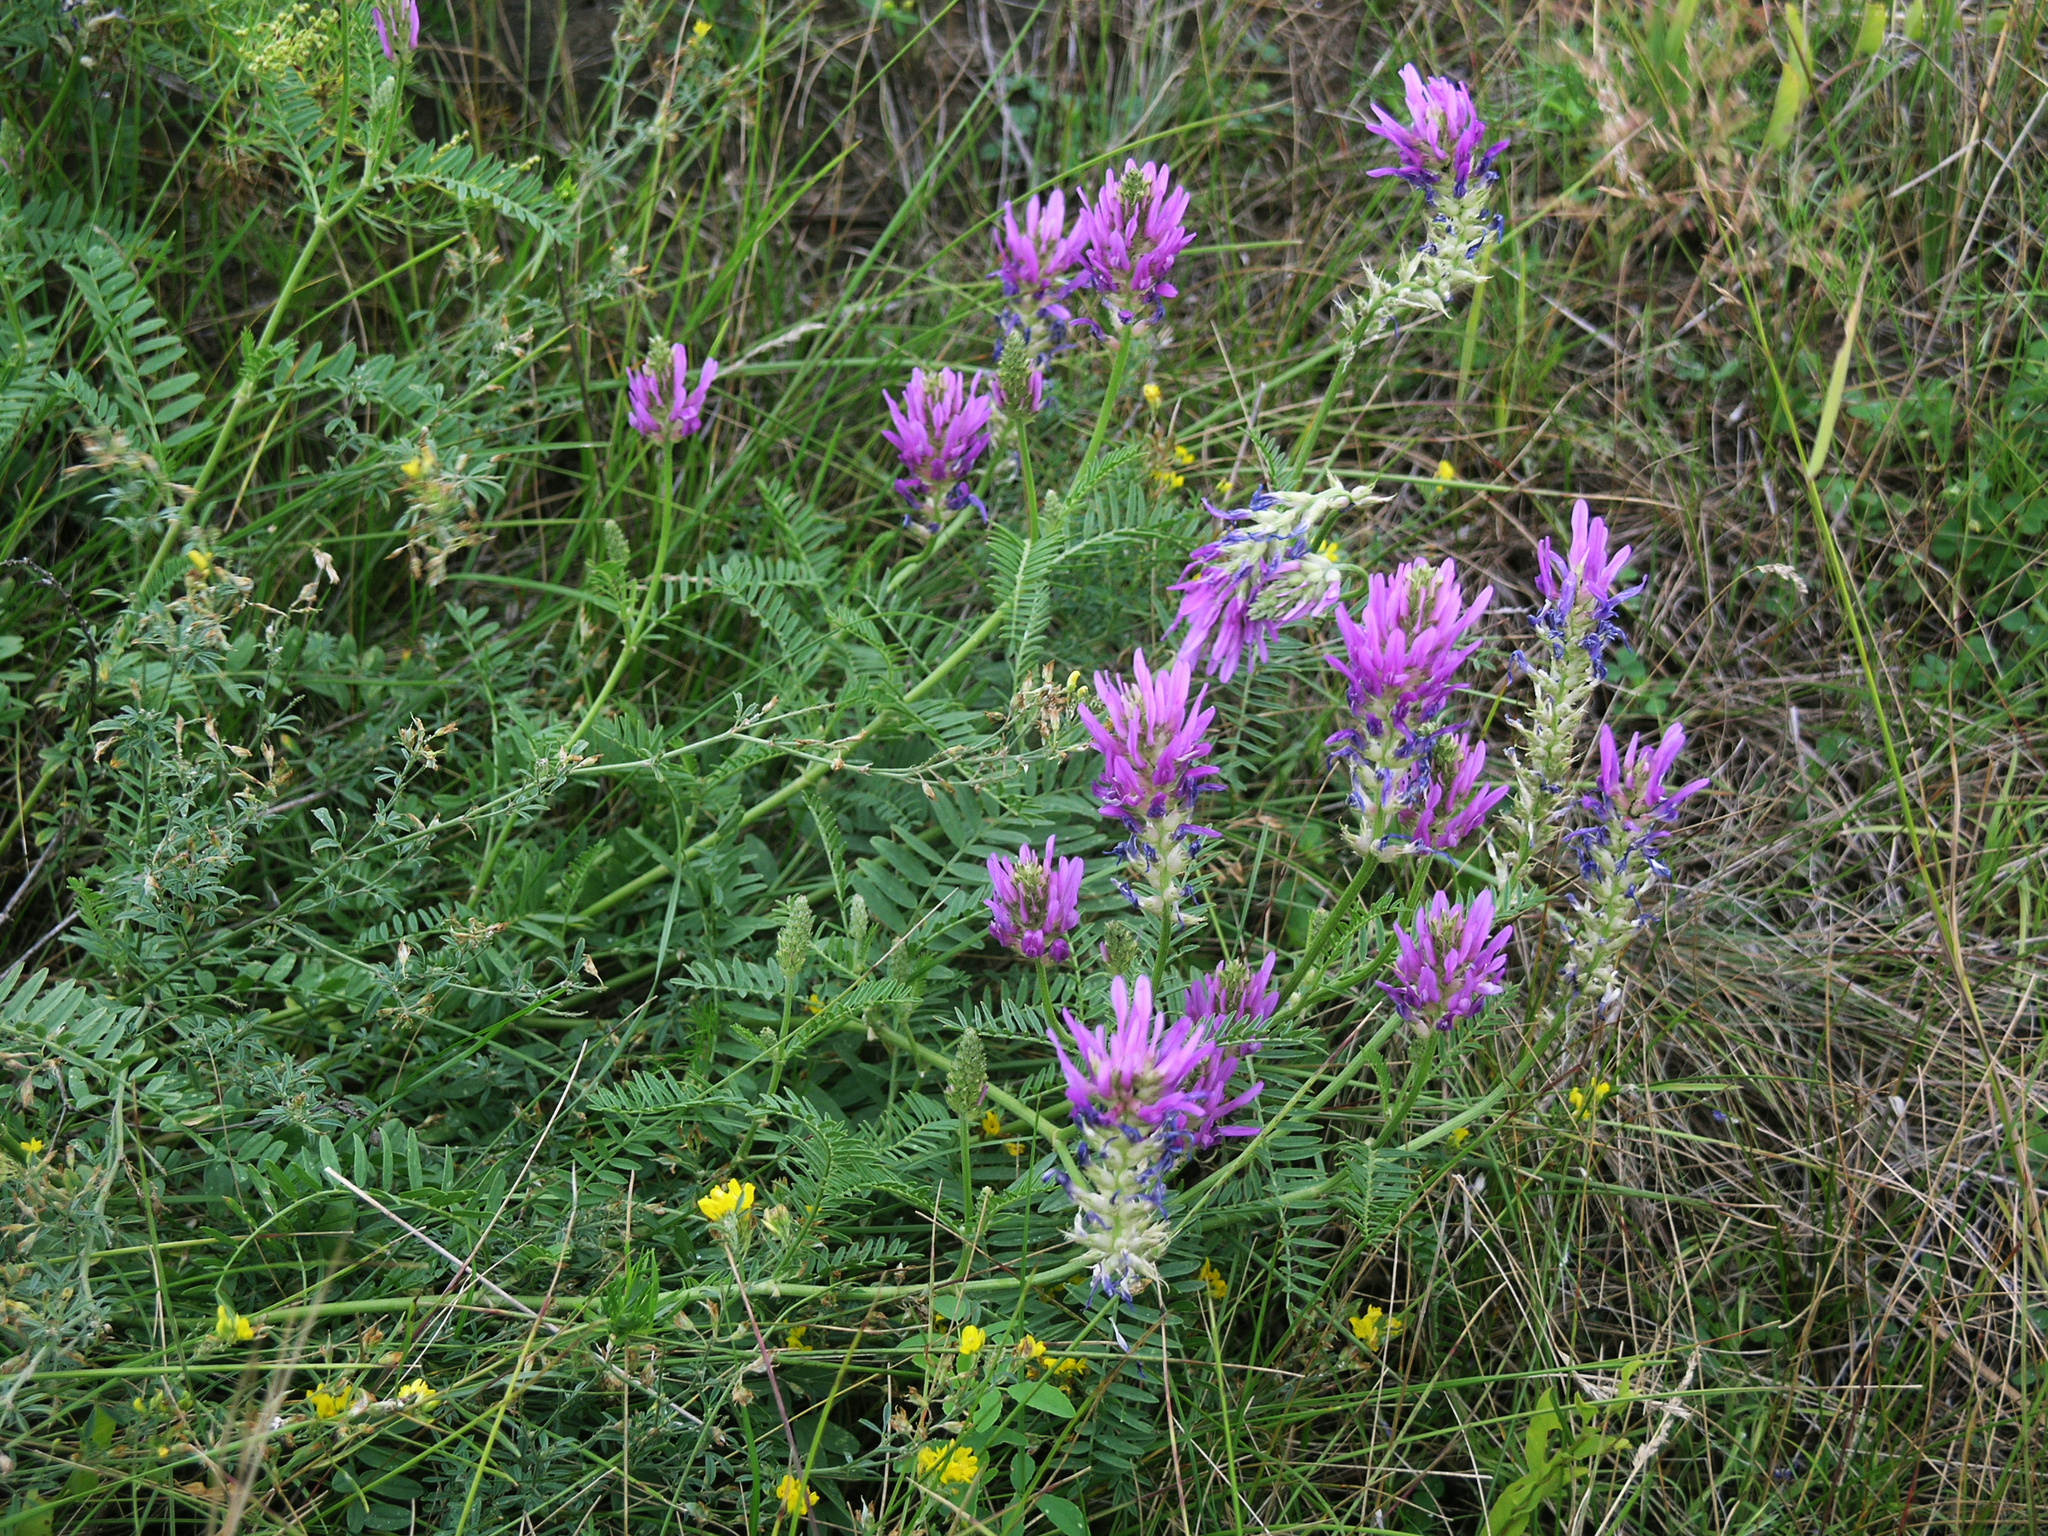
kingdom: Plantae
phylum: Tracheophyta
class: Magnoliopsida
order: Fabales
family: Fabaceae
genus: Astragalus
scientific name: Astragalus onobrychis
